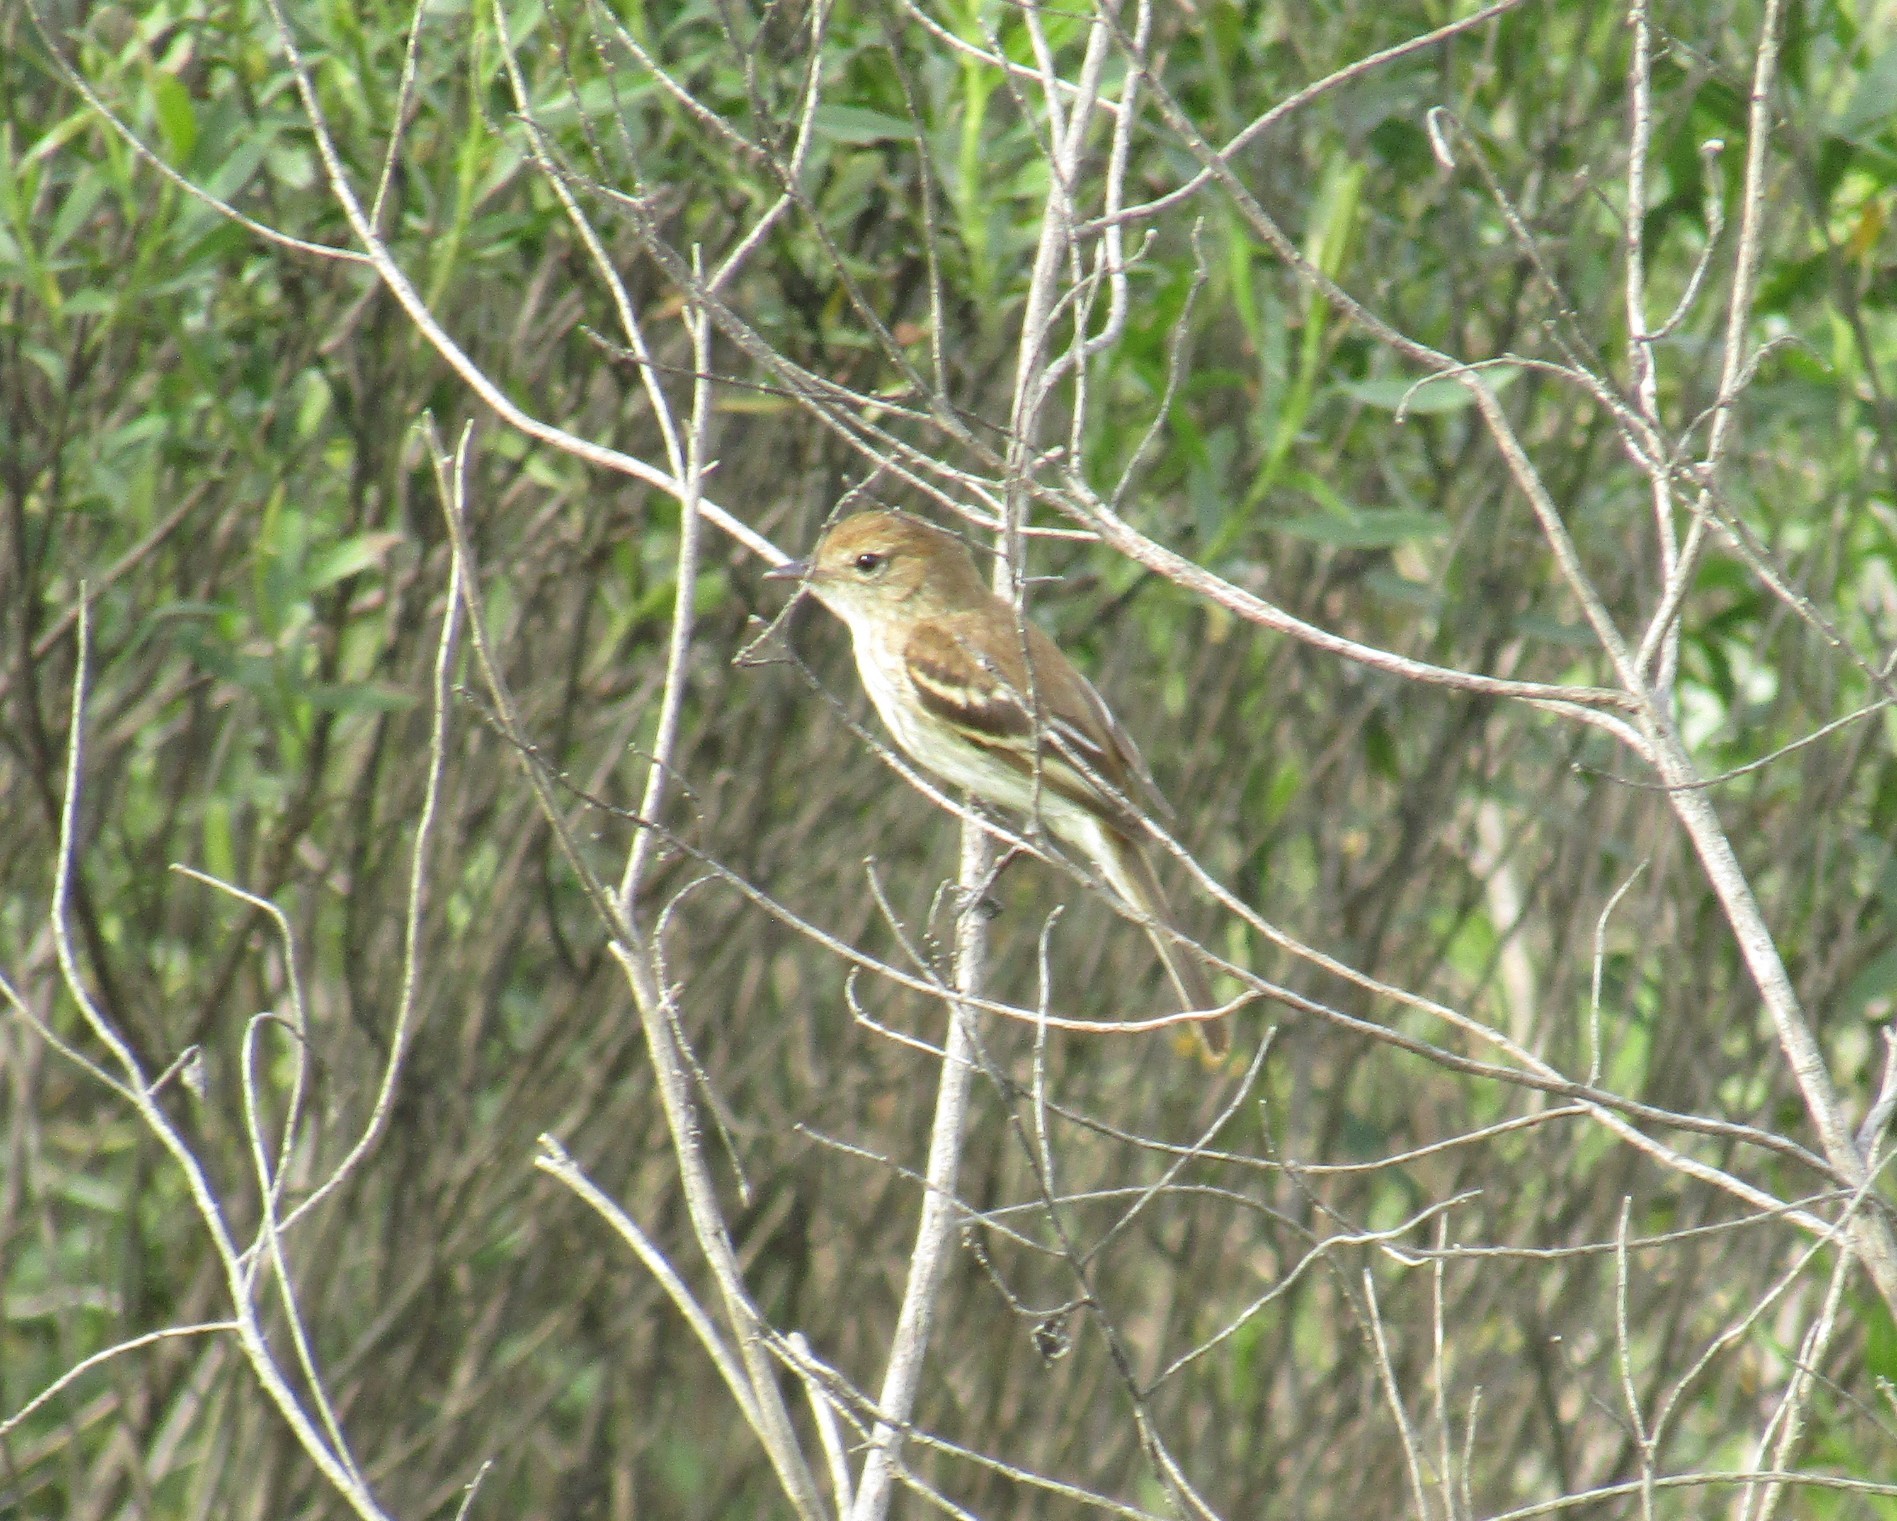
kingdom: Animalia
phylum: Chordata
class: Aves
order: Passeriformes
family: Tyrannidae
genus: Myiophobus
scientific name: Myiophobus fasciatus
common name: Bran-colored flycatcher
